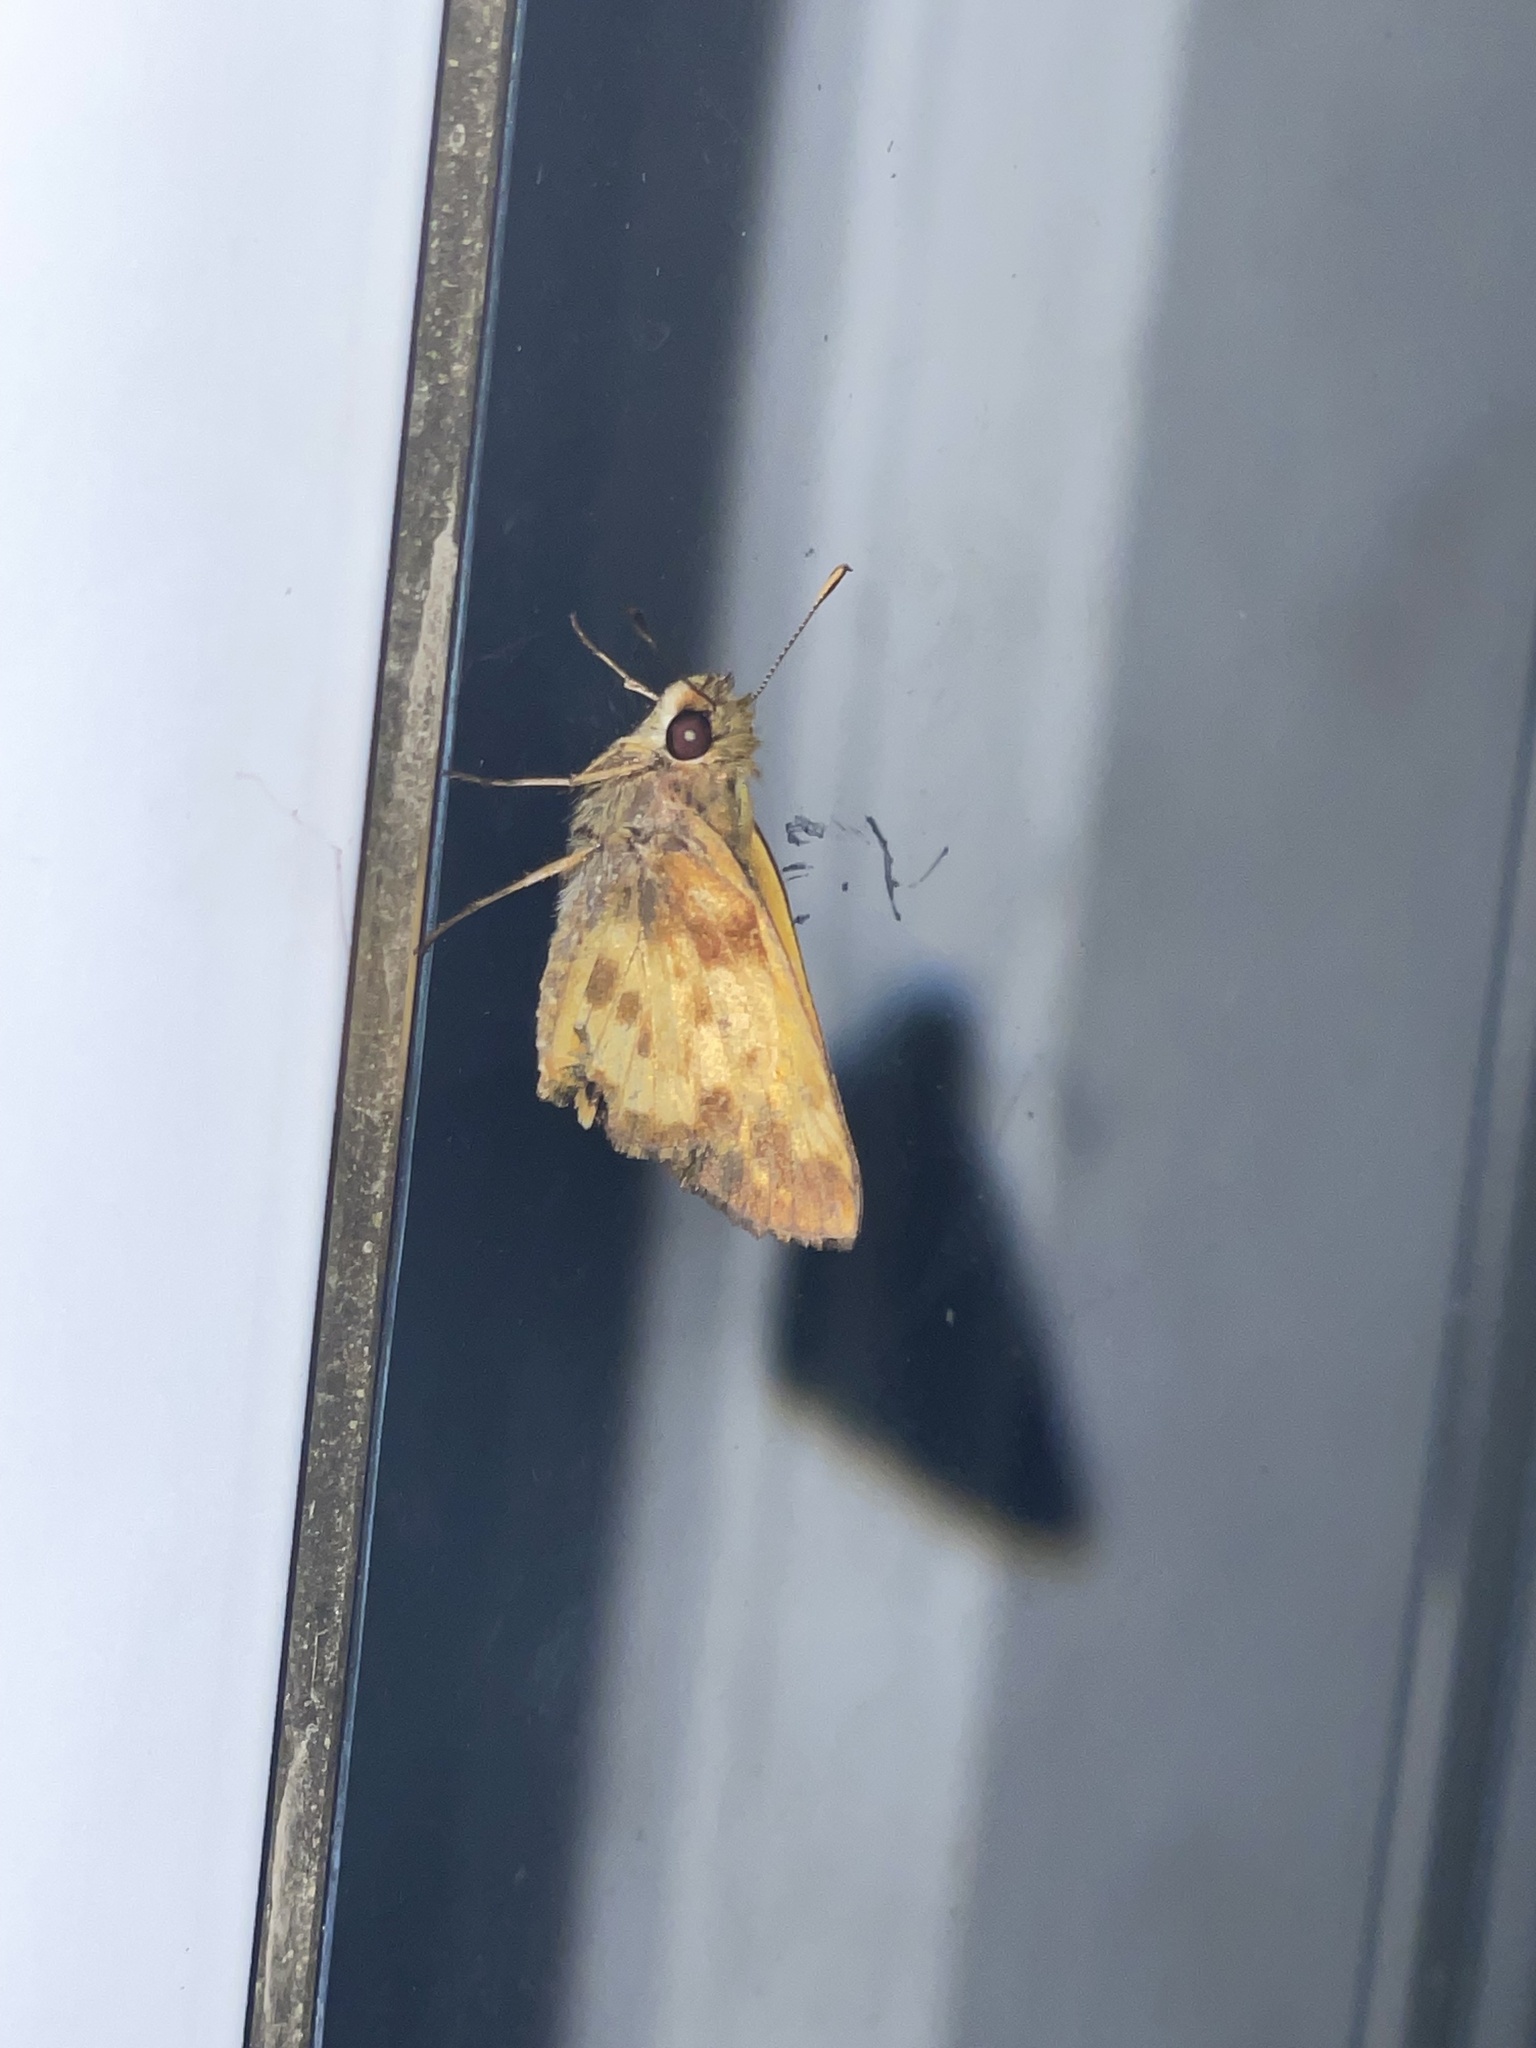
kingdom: Animalia
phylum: Arthropoda
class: Insecta
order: Lepidoptera
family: Hesperiidae
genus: Lon
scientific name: Lon zabulon
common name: Zabulon skipper
